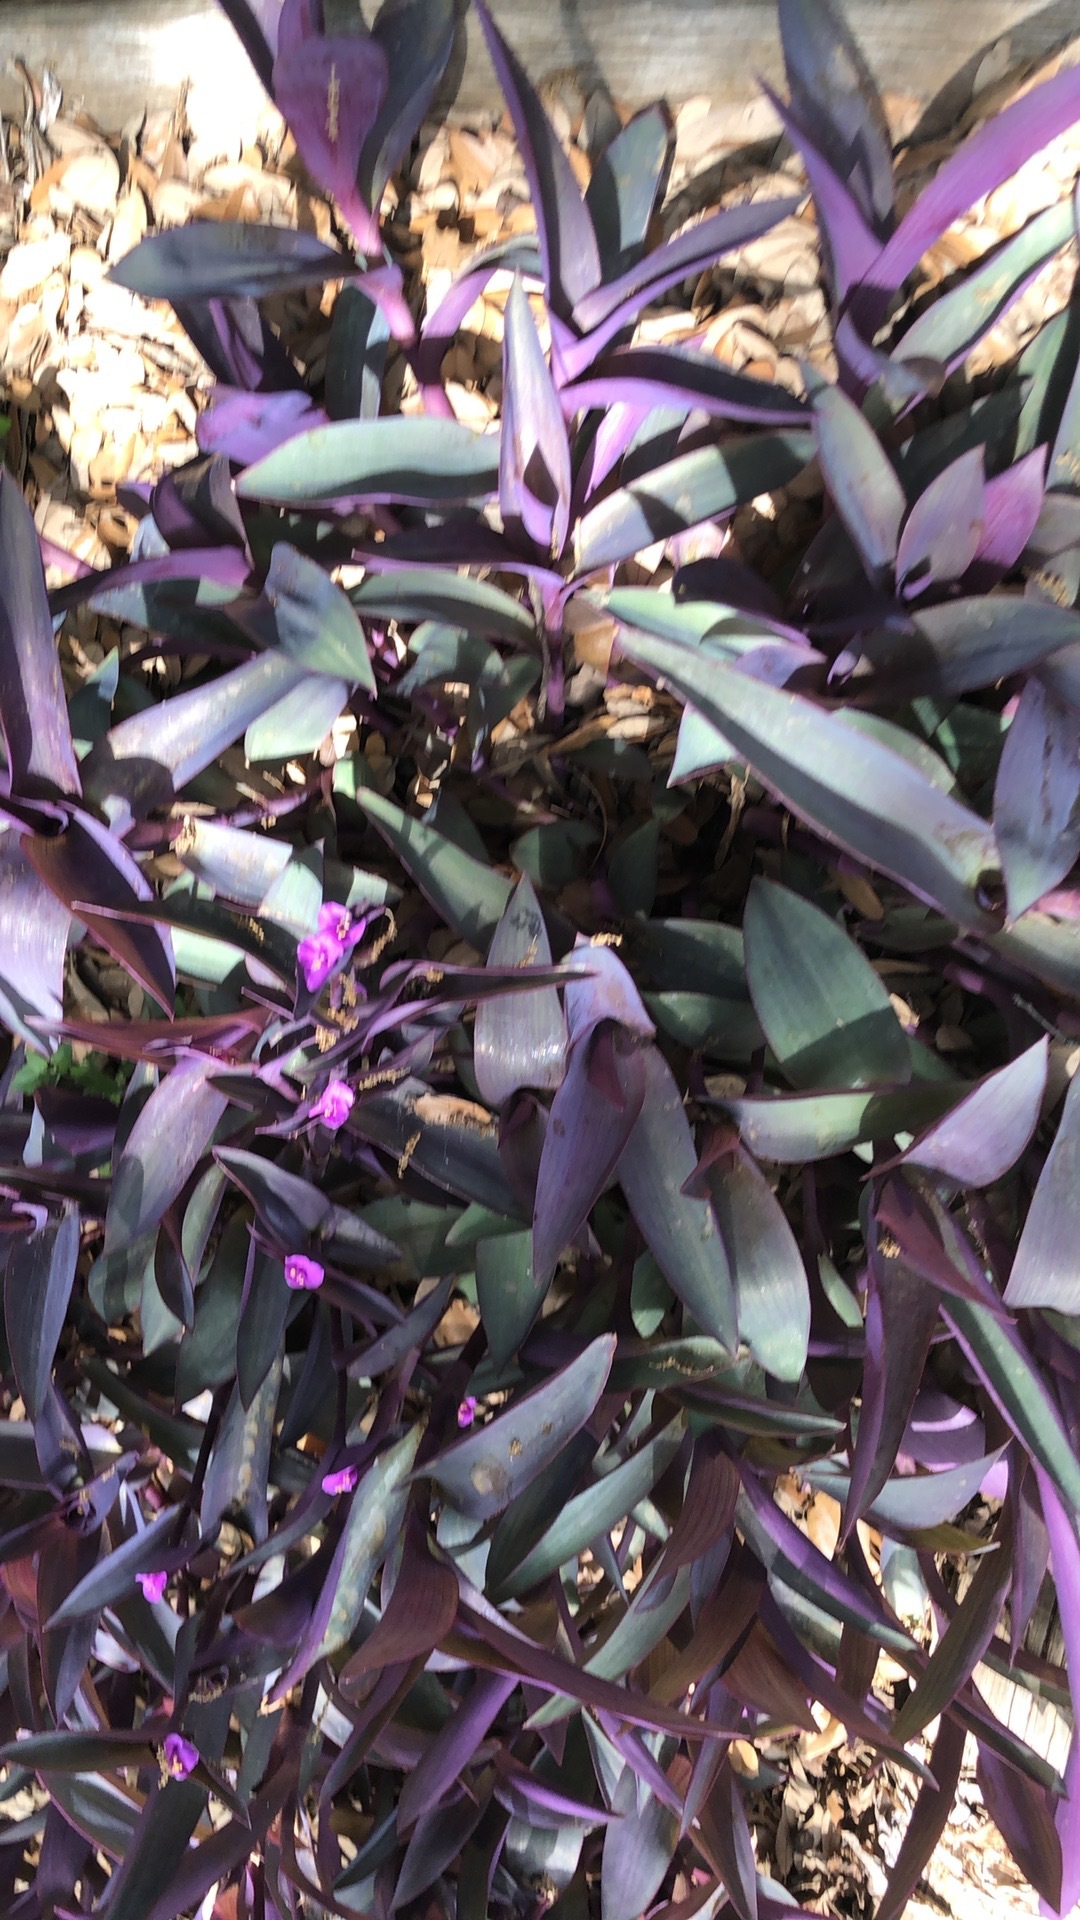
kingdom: Plantae
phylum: Tracheophyta
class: Liliopsida
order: Commelinales
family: Commelinaceae
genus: Tradescantia
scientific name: Tradescantia pallida
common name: Purpleheart
